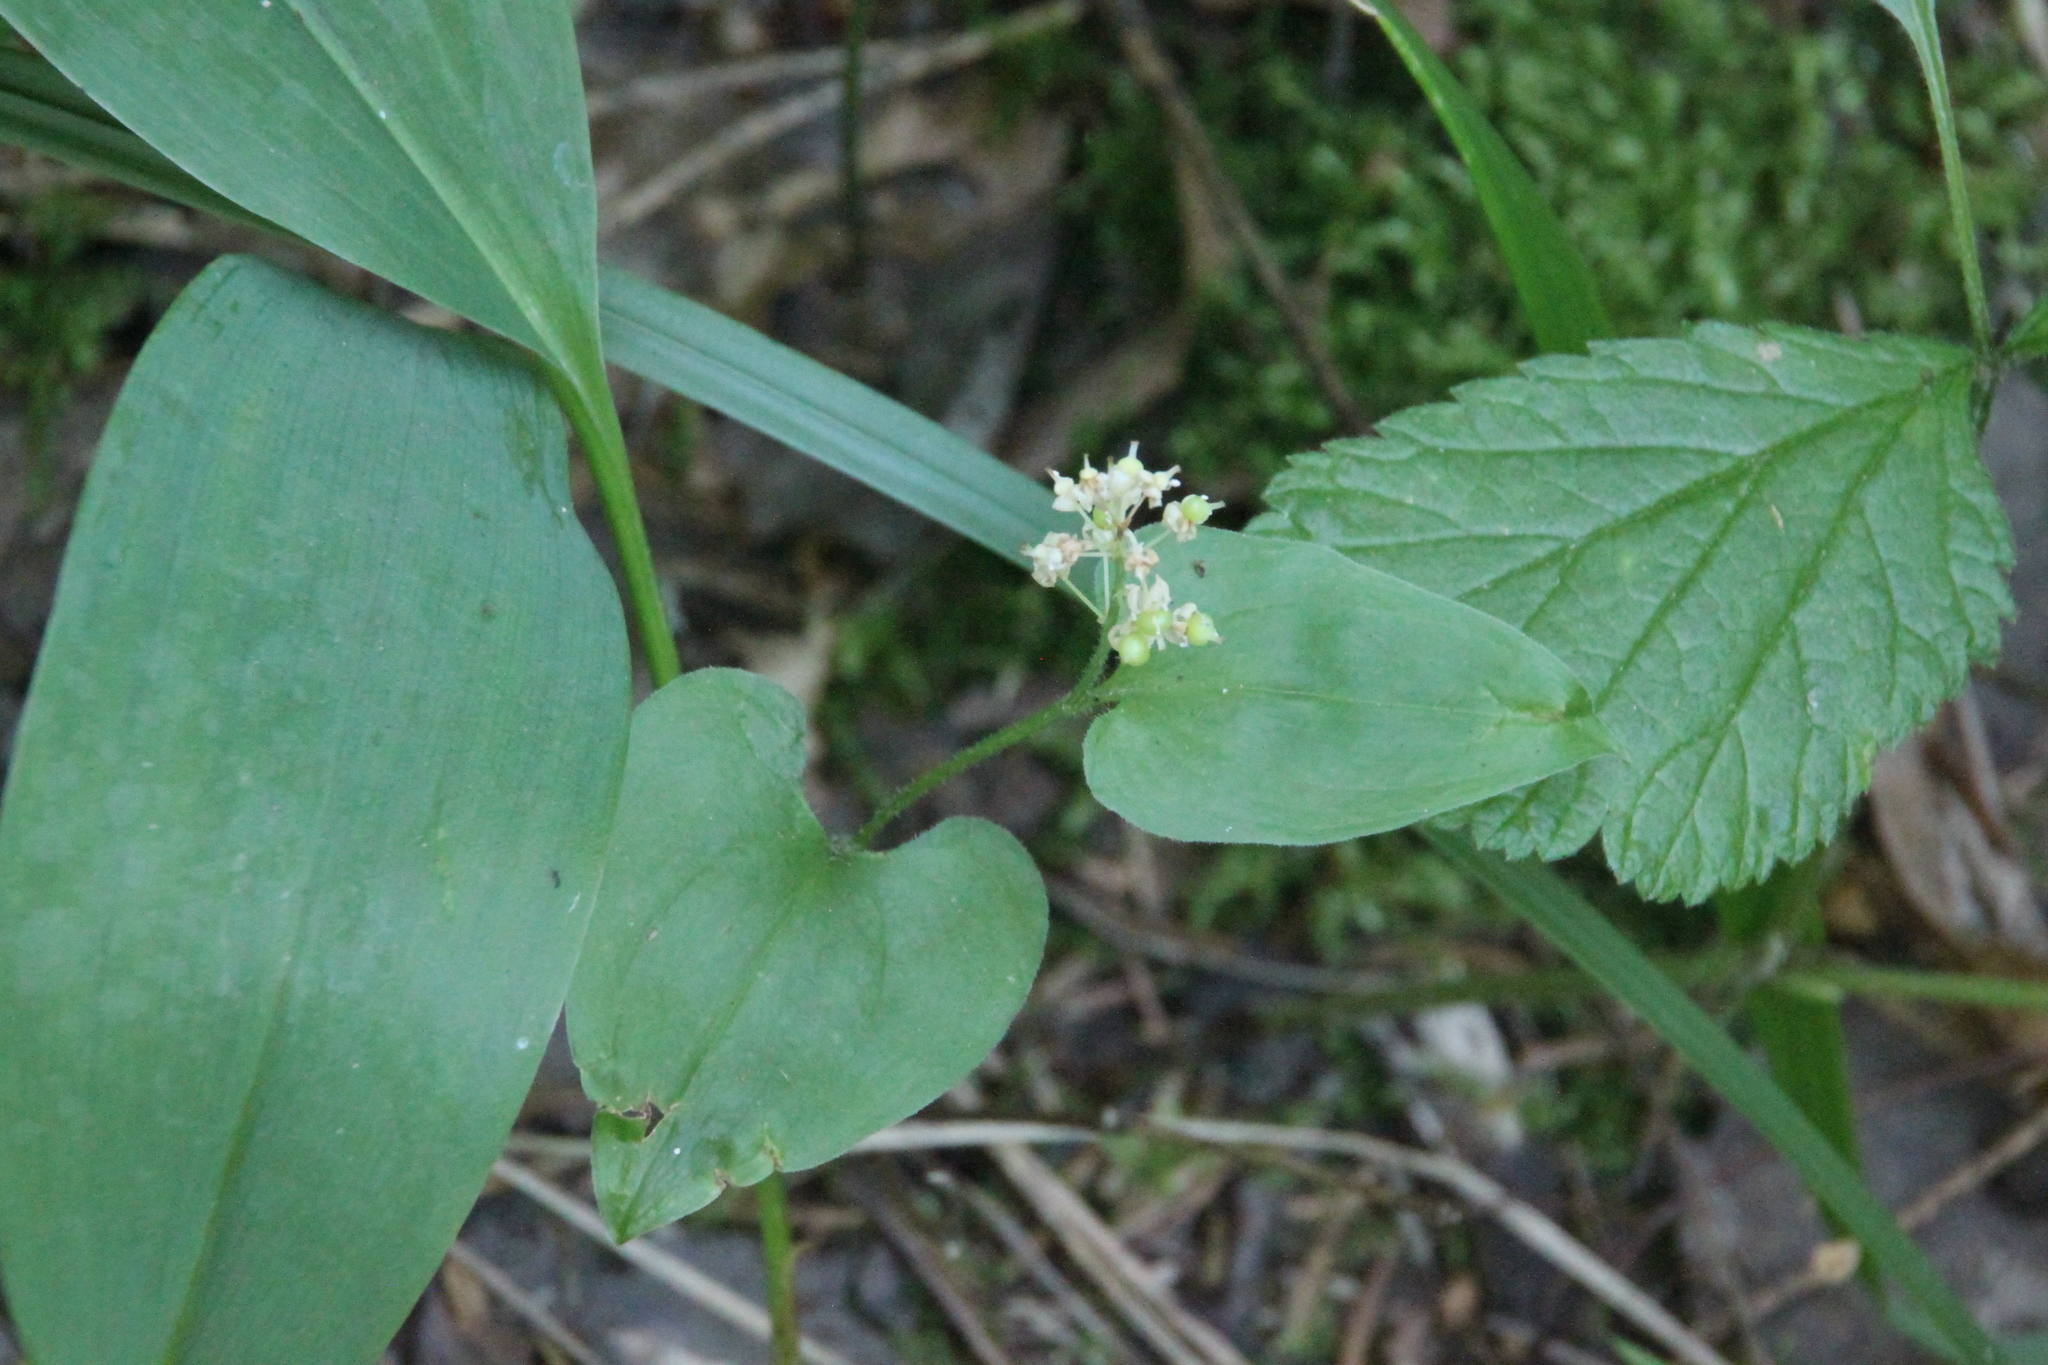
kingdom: Plantae
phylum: Tracheophyta
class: Liliopsida
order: Asparagales
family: Asparagaceae
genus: Maianthemum
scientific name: Maianthemum bifolium
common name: May lily
